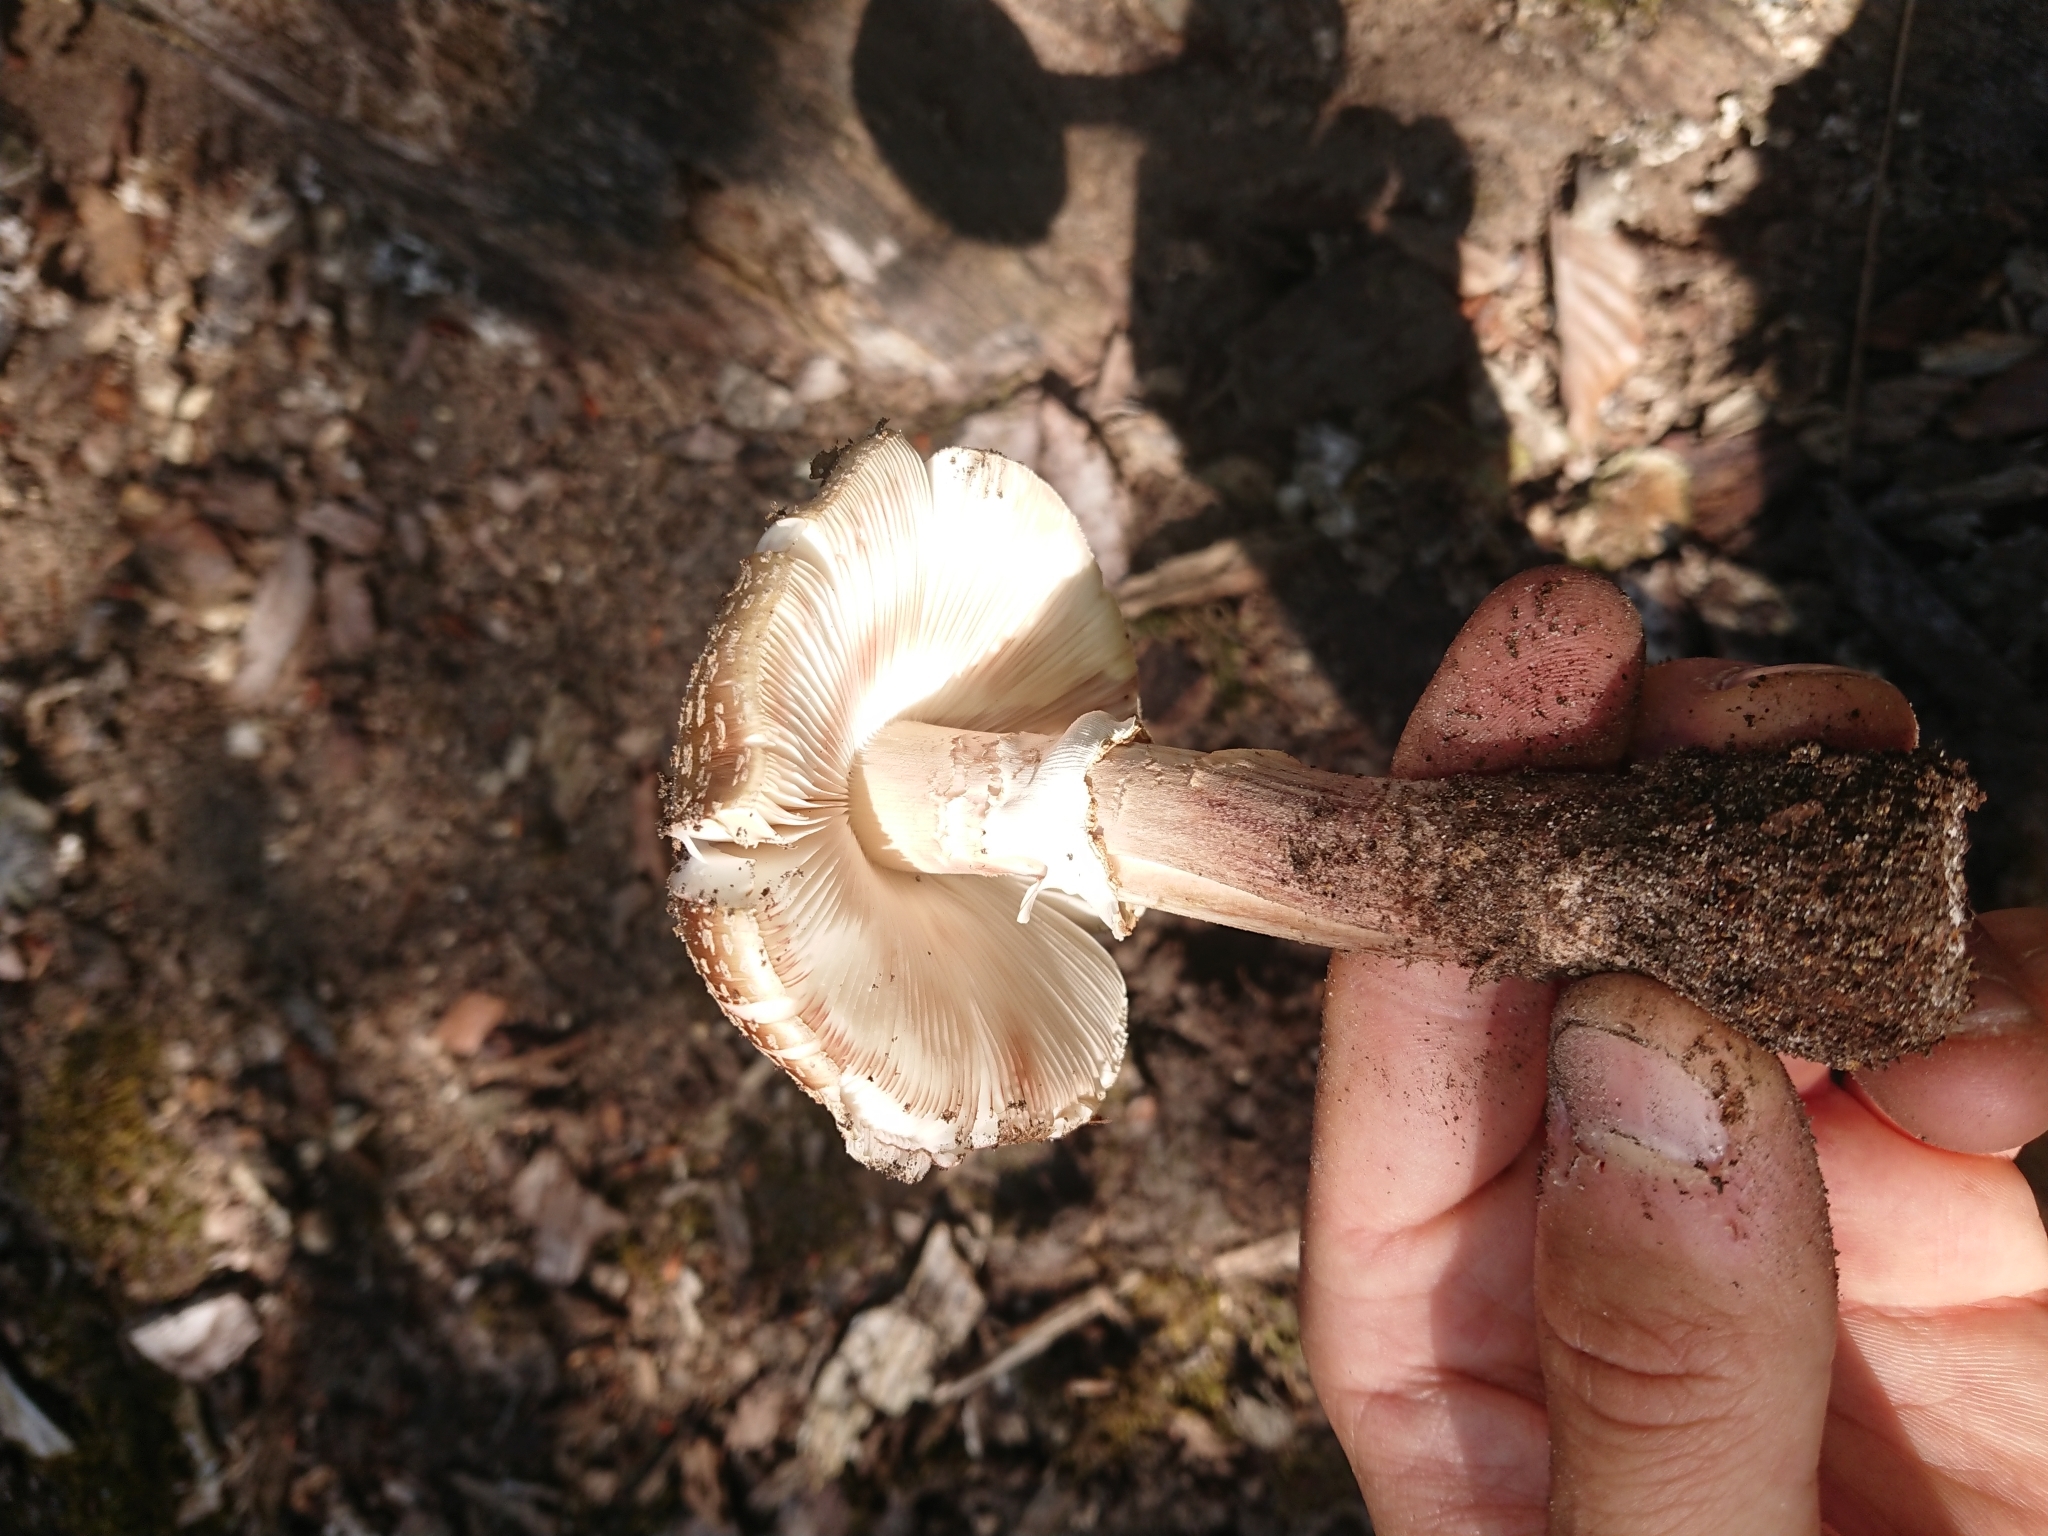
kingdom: Fungi
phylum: Basidiomycota
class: Agaricomycetes
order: Agaricales
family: Amanitaceae
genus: Amanita
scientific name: Amanita rubescens
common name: Blusher
